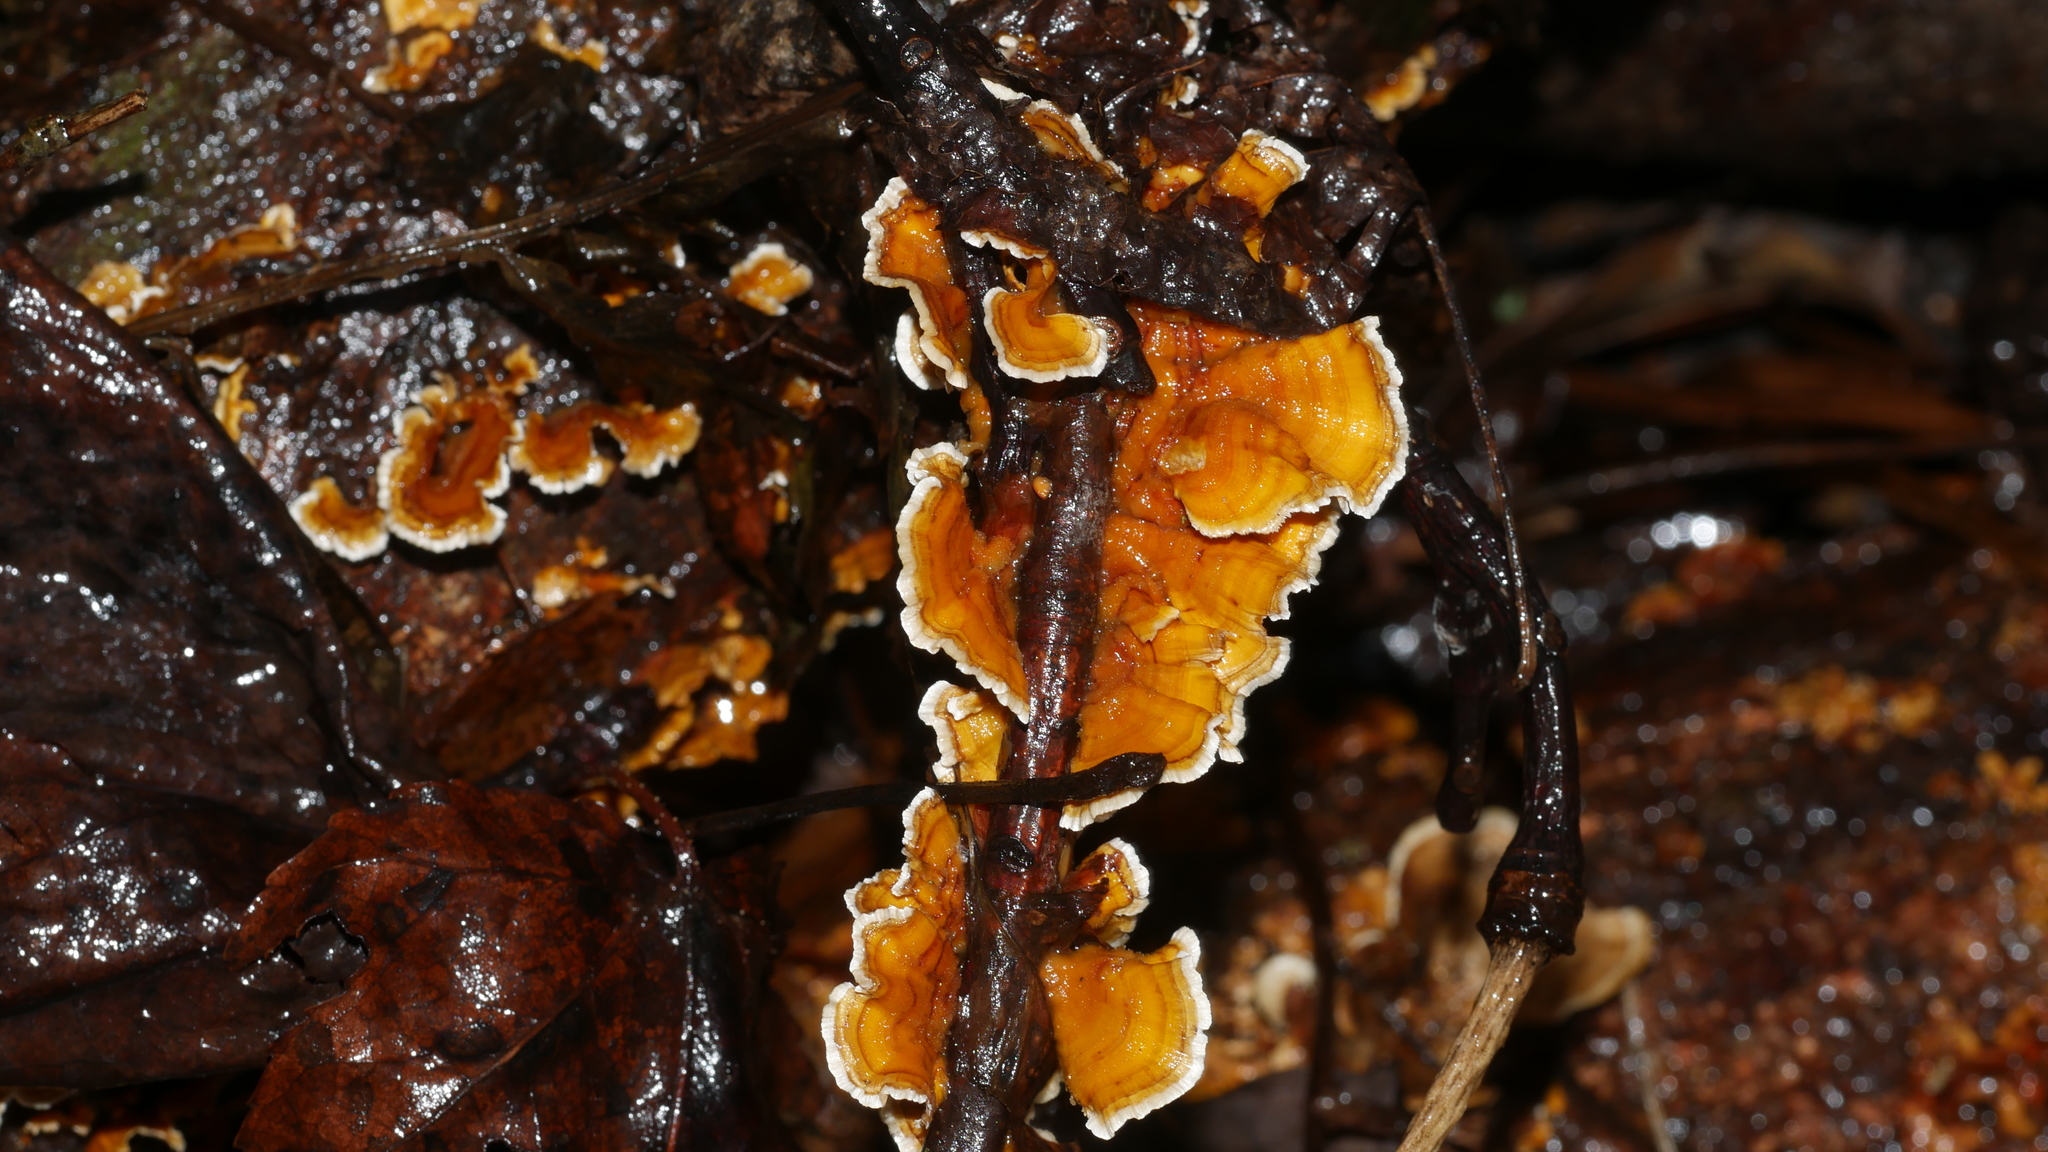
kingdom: Fungi
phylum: Basidiomycota
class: Agaricomycetes
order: Russulales
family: Stereaceae
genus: Stereum
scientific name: Stereum complicatum
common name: Crowded parchment
